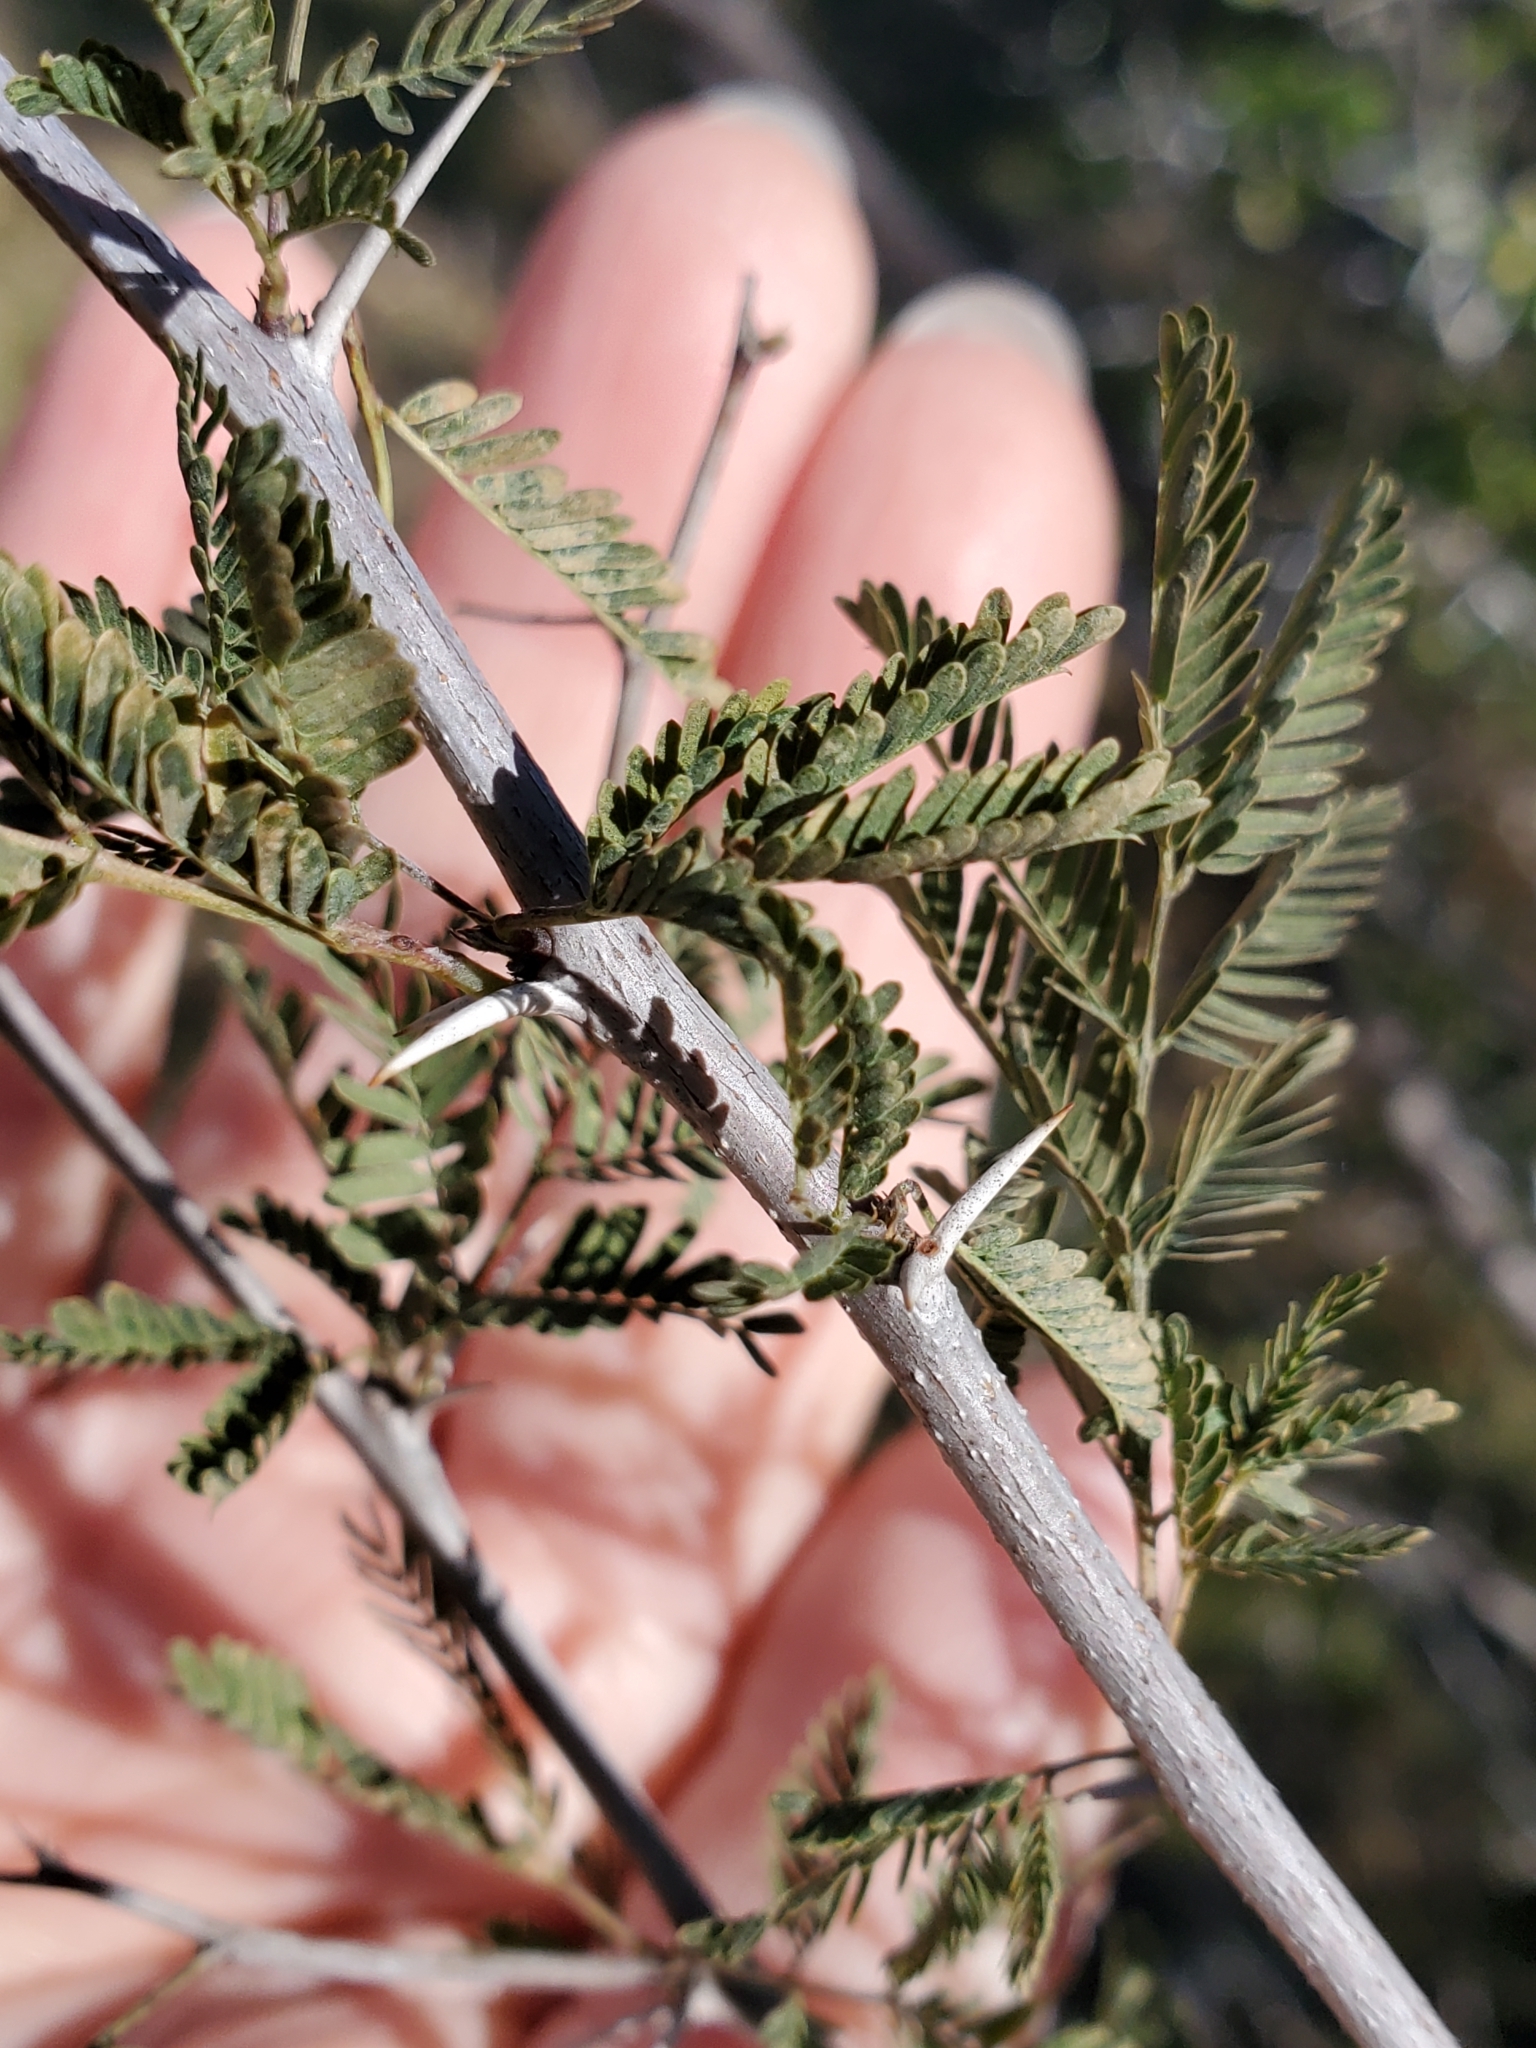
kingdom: Plantae
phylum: Tracheophyta
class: Magnoliopsida
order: Fabales
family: Fabaceae
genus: Vachellia
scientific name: Vachellia farnesiana
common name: Sweet acacia
